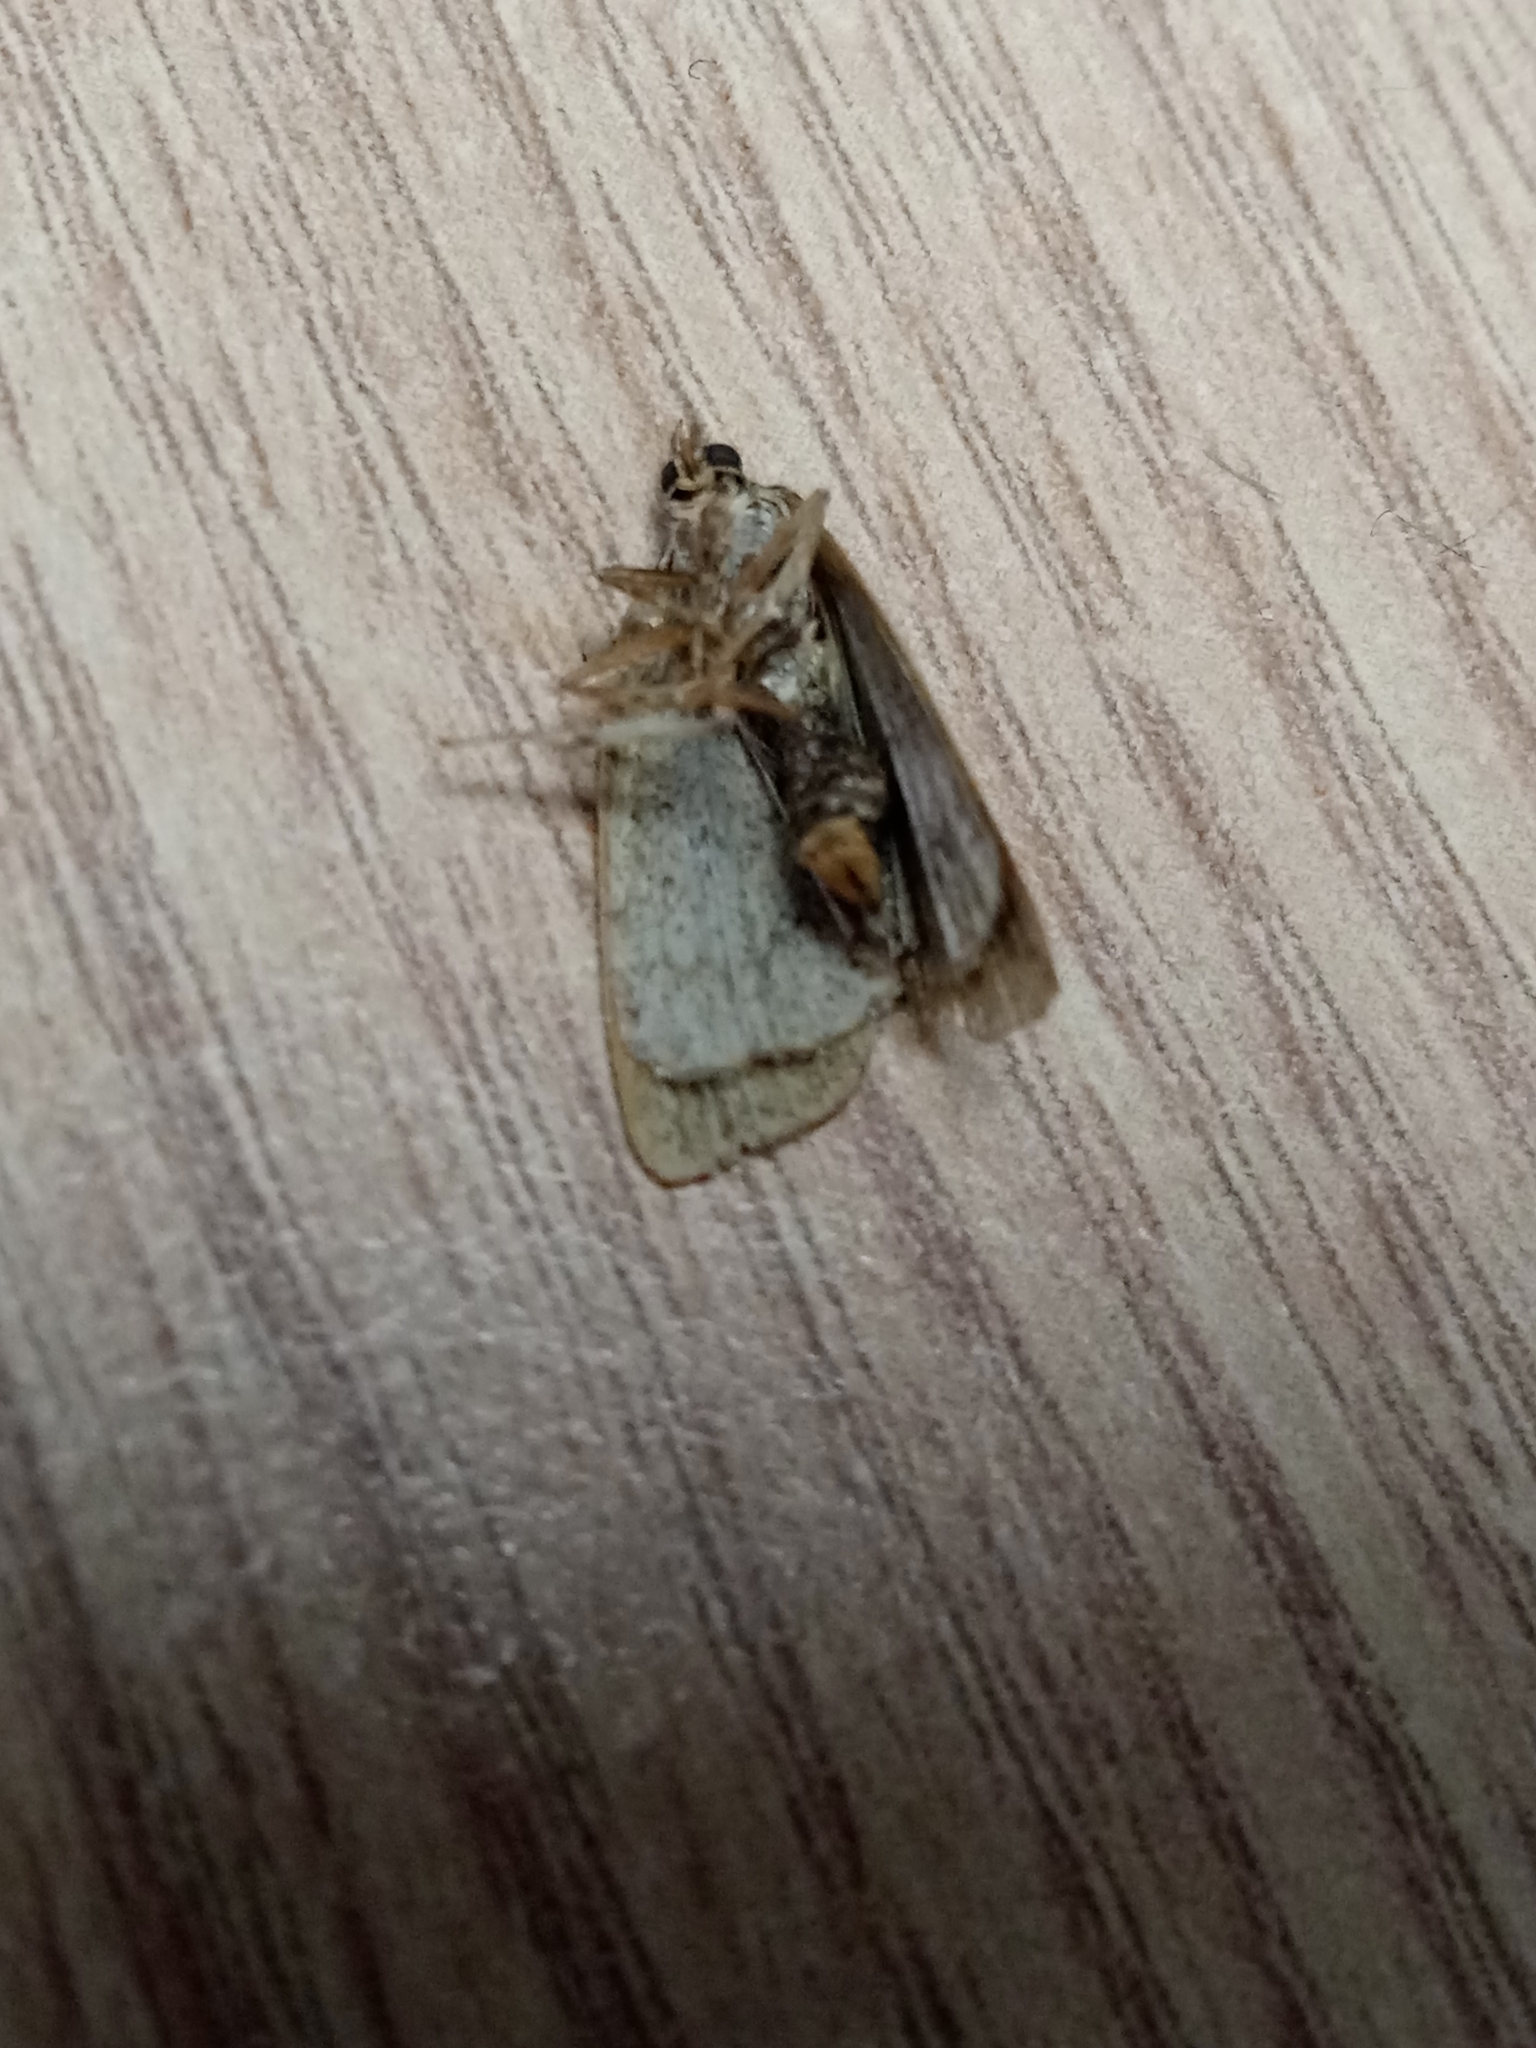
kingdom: Animalia
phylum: Arthropoda
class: Insecta
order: Lepidoptera
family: Noctuidae
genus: Deltote
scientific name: Deltote pygarga
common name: Marbled white spot
